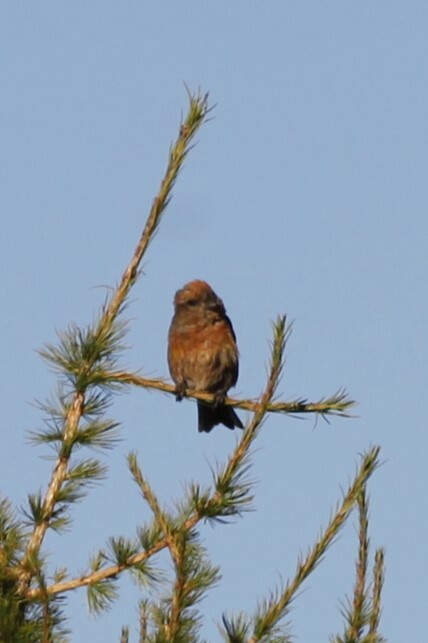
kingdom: Animalia
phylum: Chordata
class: Aves
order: Passeriformes
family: Fringillidae
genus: Loxia
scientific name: Loxia curvirostra
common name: Red crossbill
